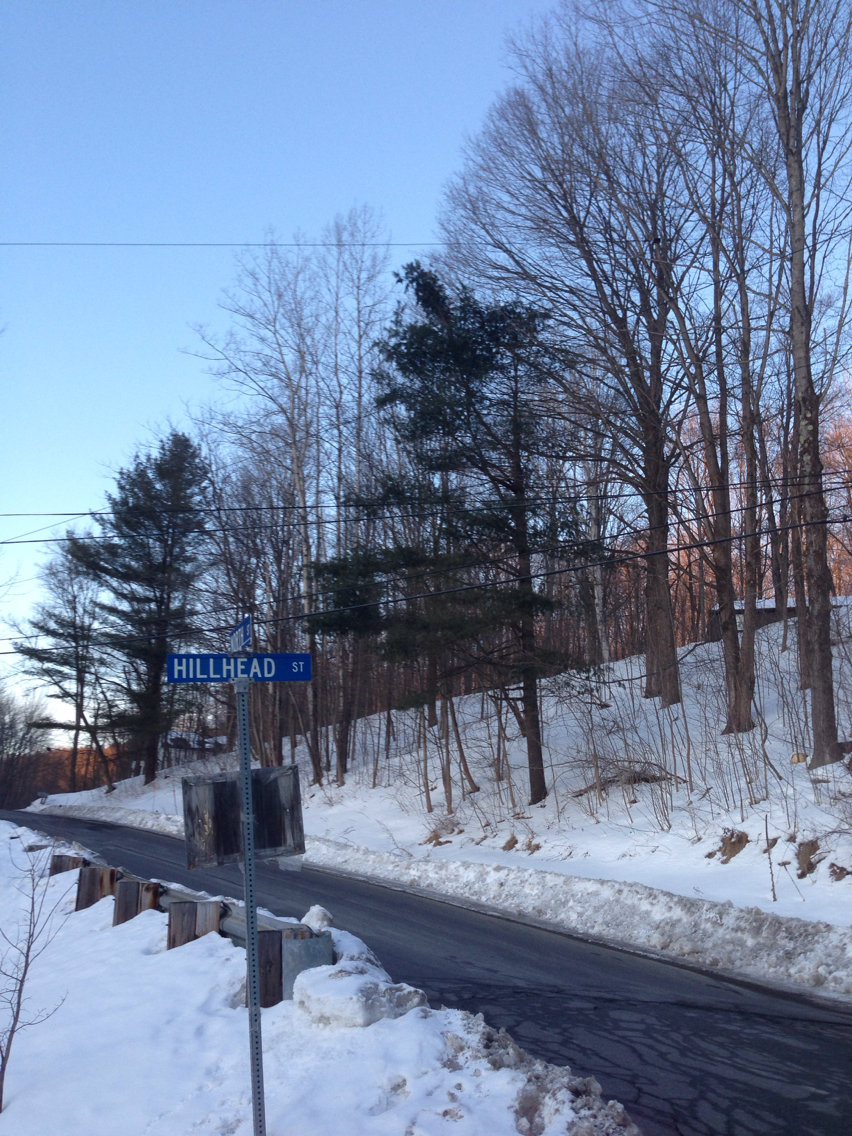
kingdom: Plantae
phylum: Tracheophyta
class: Pinopsida
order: Pinales
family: Pinaceae
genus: Pinus
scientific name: Pinus strobus
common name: Weymouth pine
